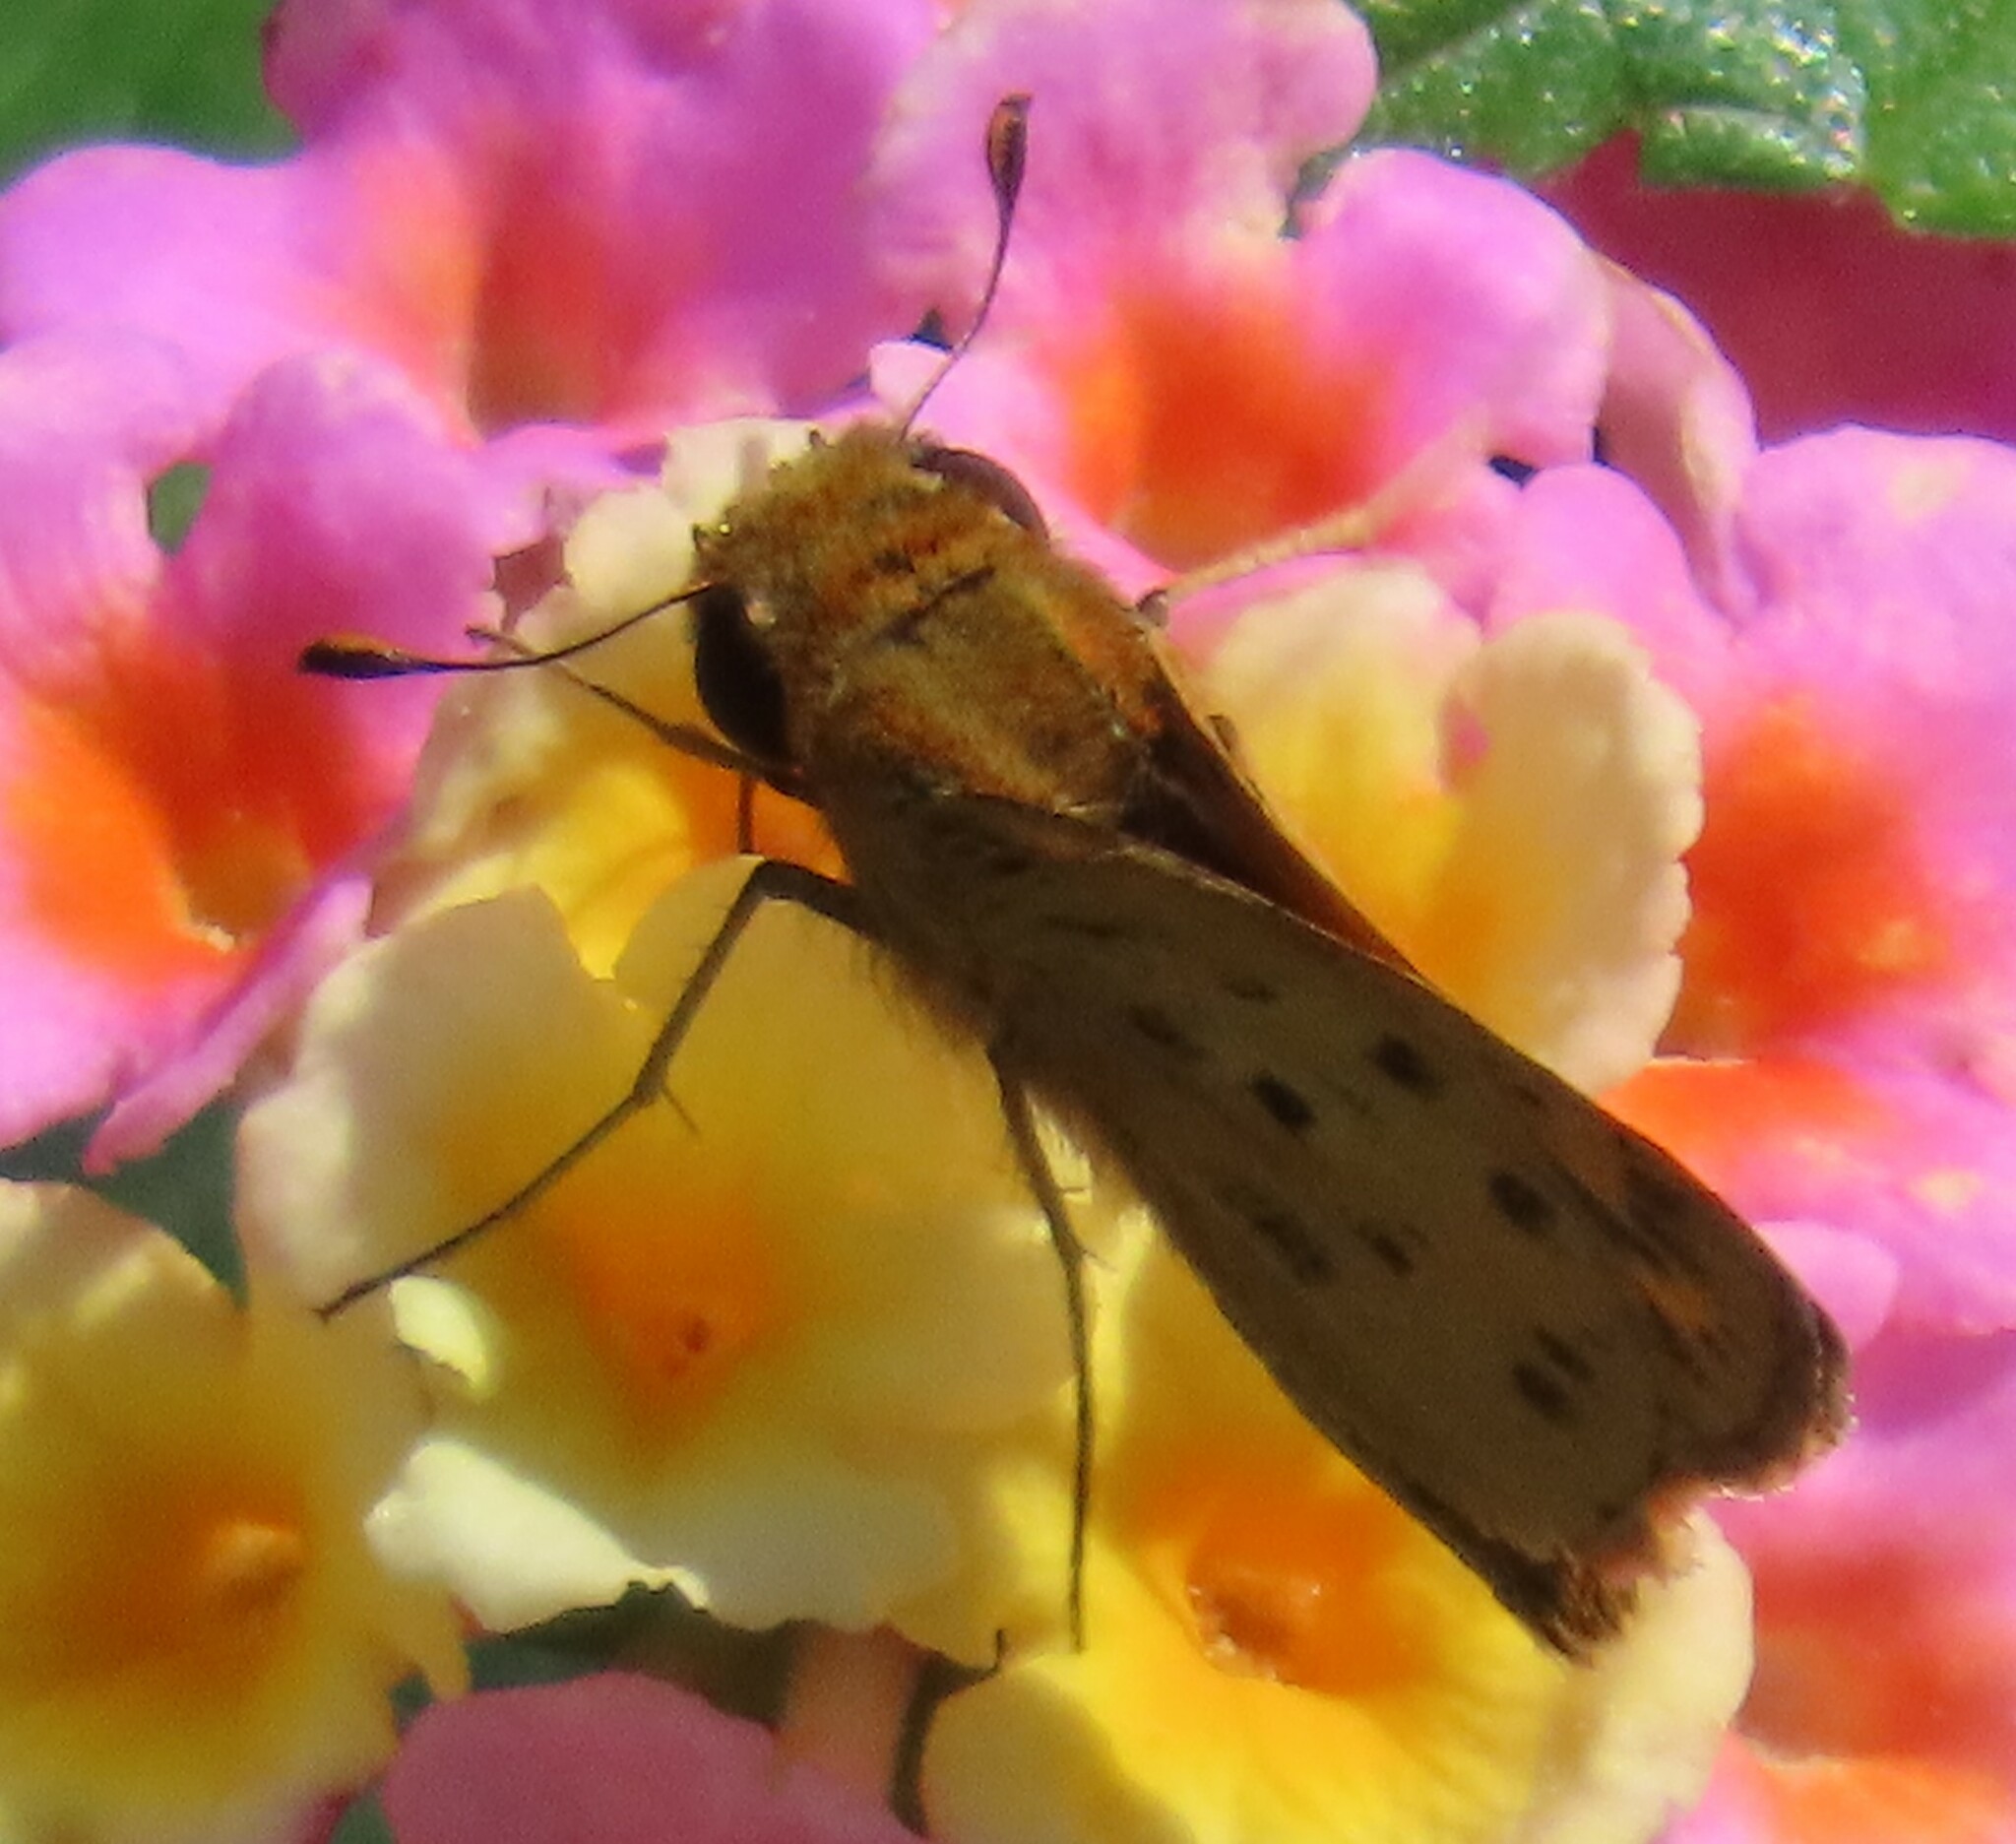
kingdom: Animalia
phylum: Arthropoda
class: Insecta
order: Lepidoptera
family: Hesperiidae
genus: Hylephila
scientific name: Hylephila phyleus
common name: Fiery skipper
